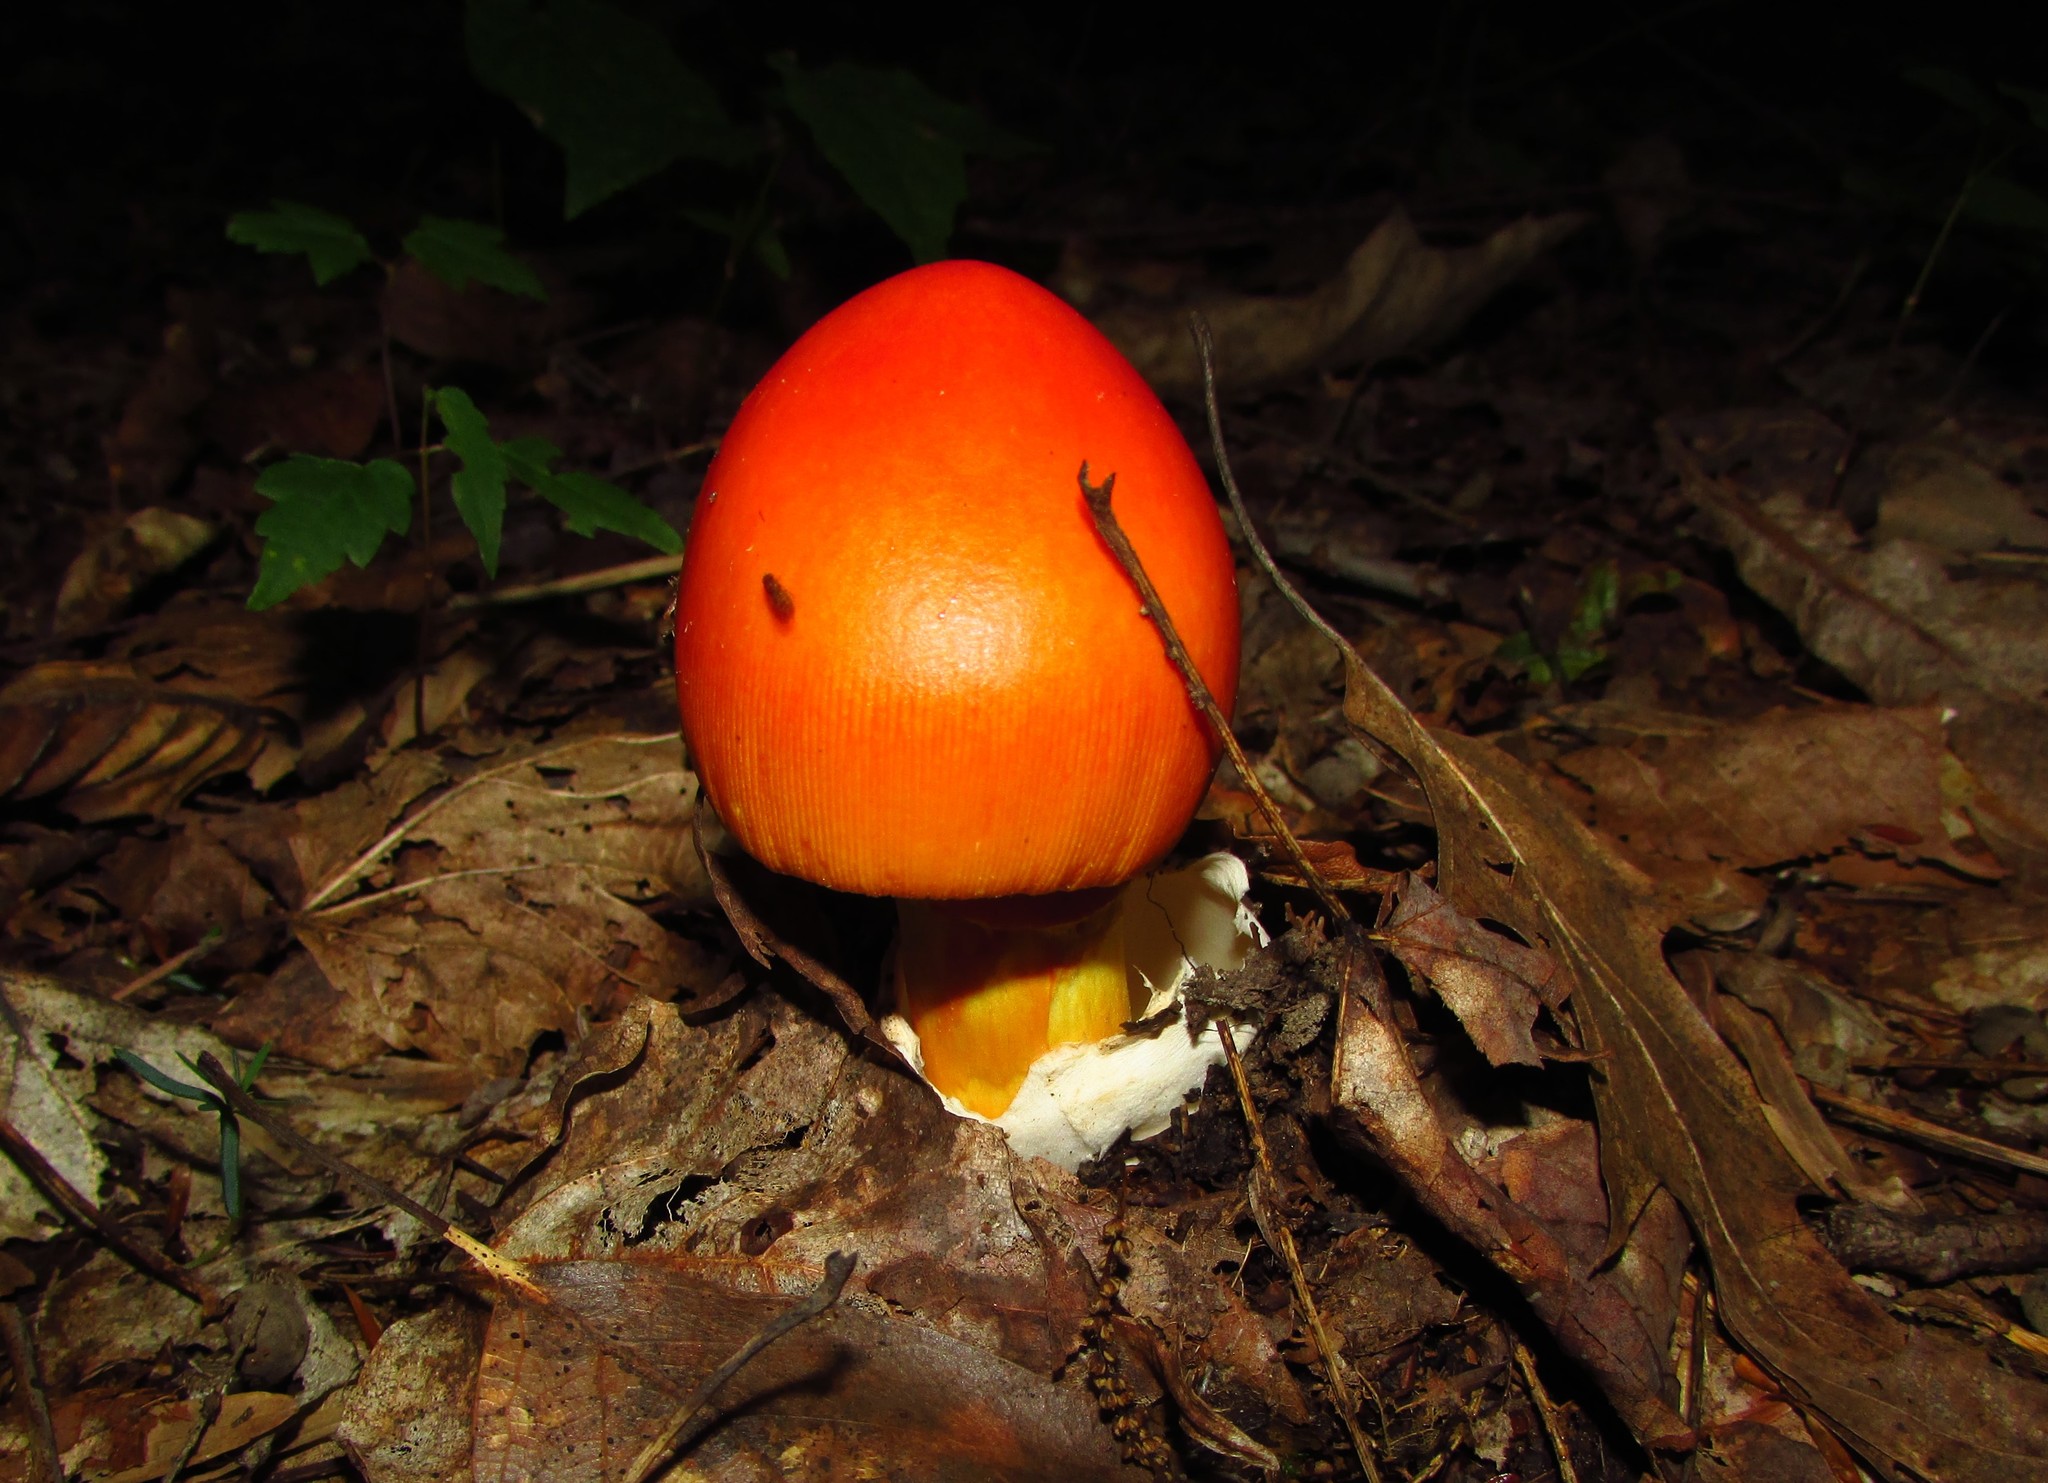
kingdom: Fungi
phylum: Basidiomycota
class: Agaricomycetes
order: Agaricales
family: Amanitaceae
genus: Amanita
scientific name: Amanita jacksonii
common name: Jackson's slender caesar
